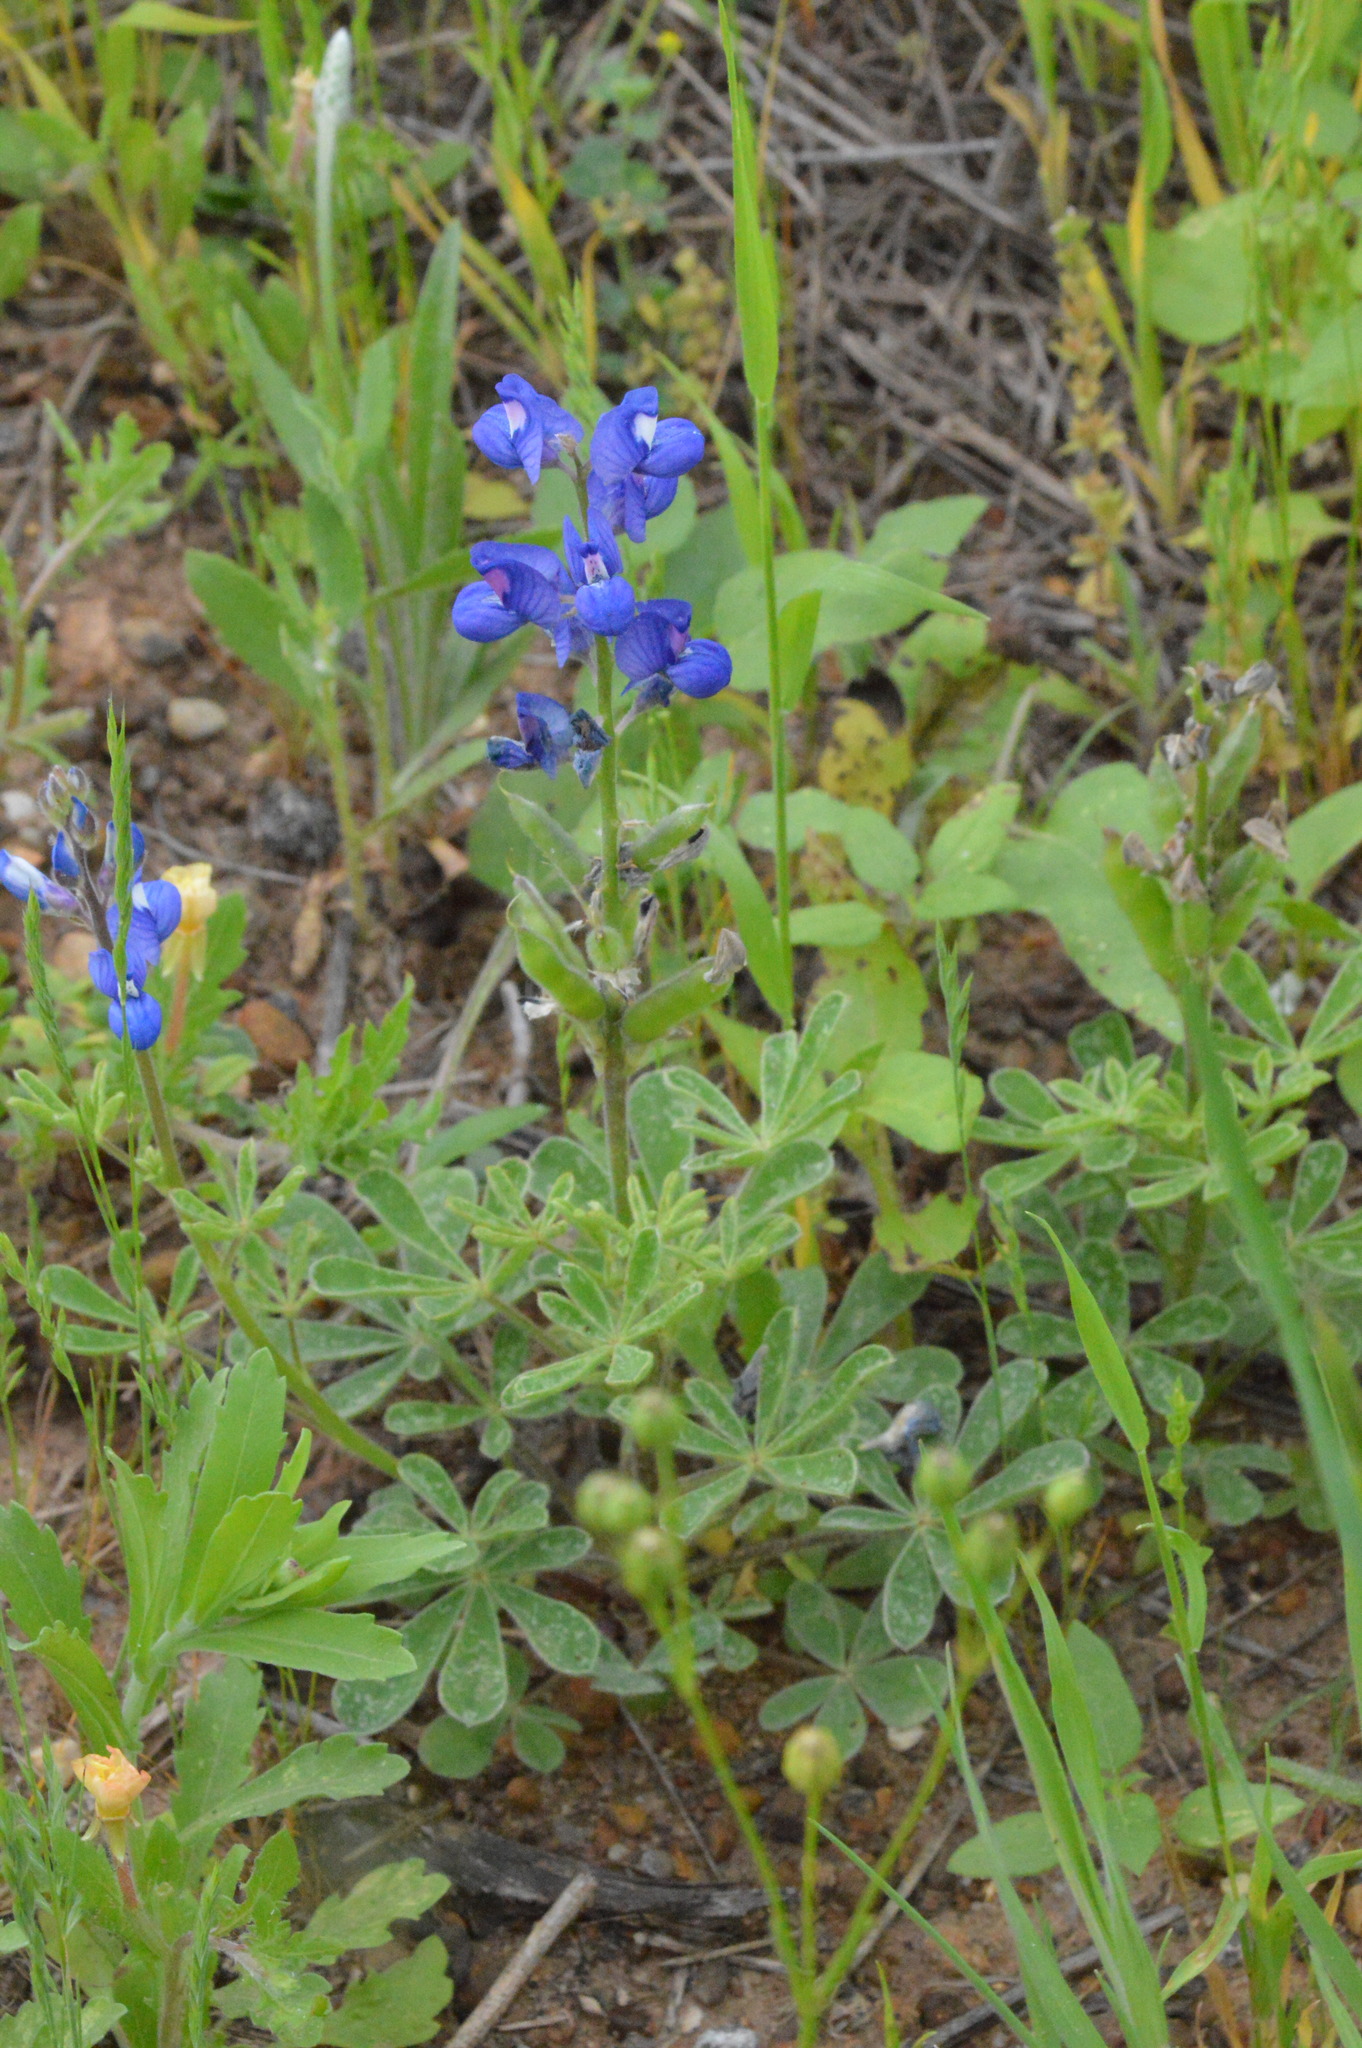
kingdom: Plantae
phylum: Tracheophyta
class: Magnoliopsida
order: Fabales
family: Fabaceae
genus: Lupinus
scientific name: Lupinus subcarnosus
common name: Texas bluebonnet
